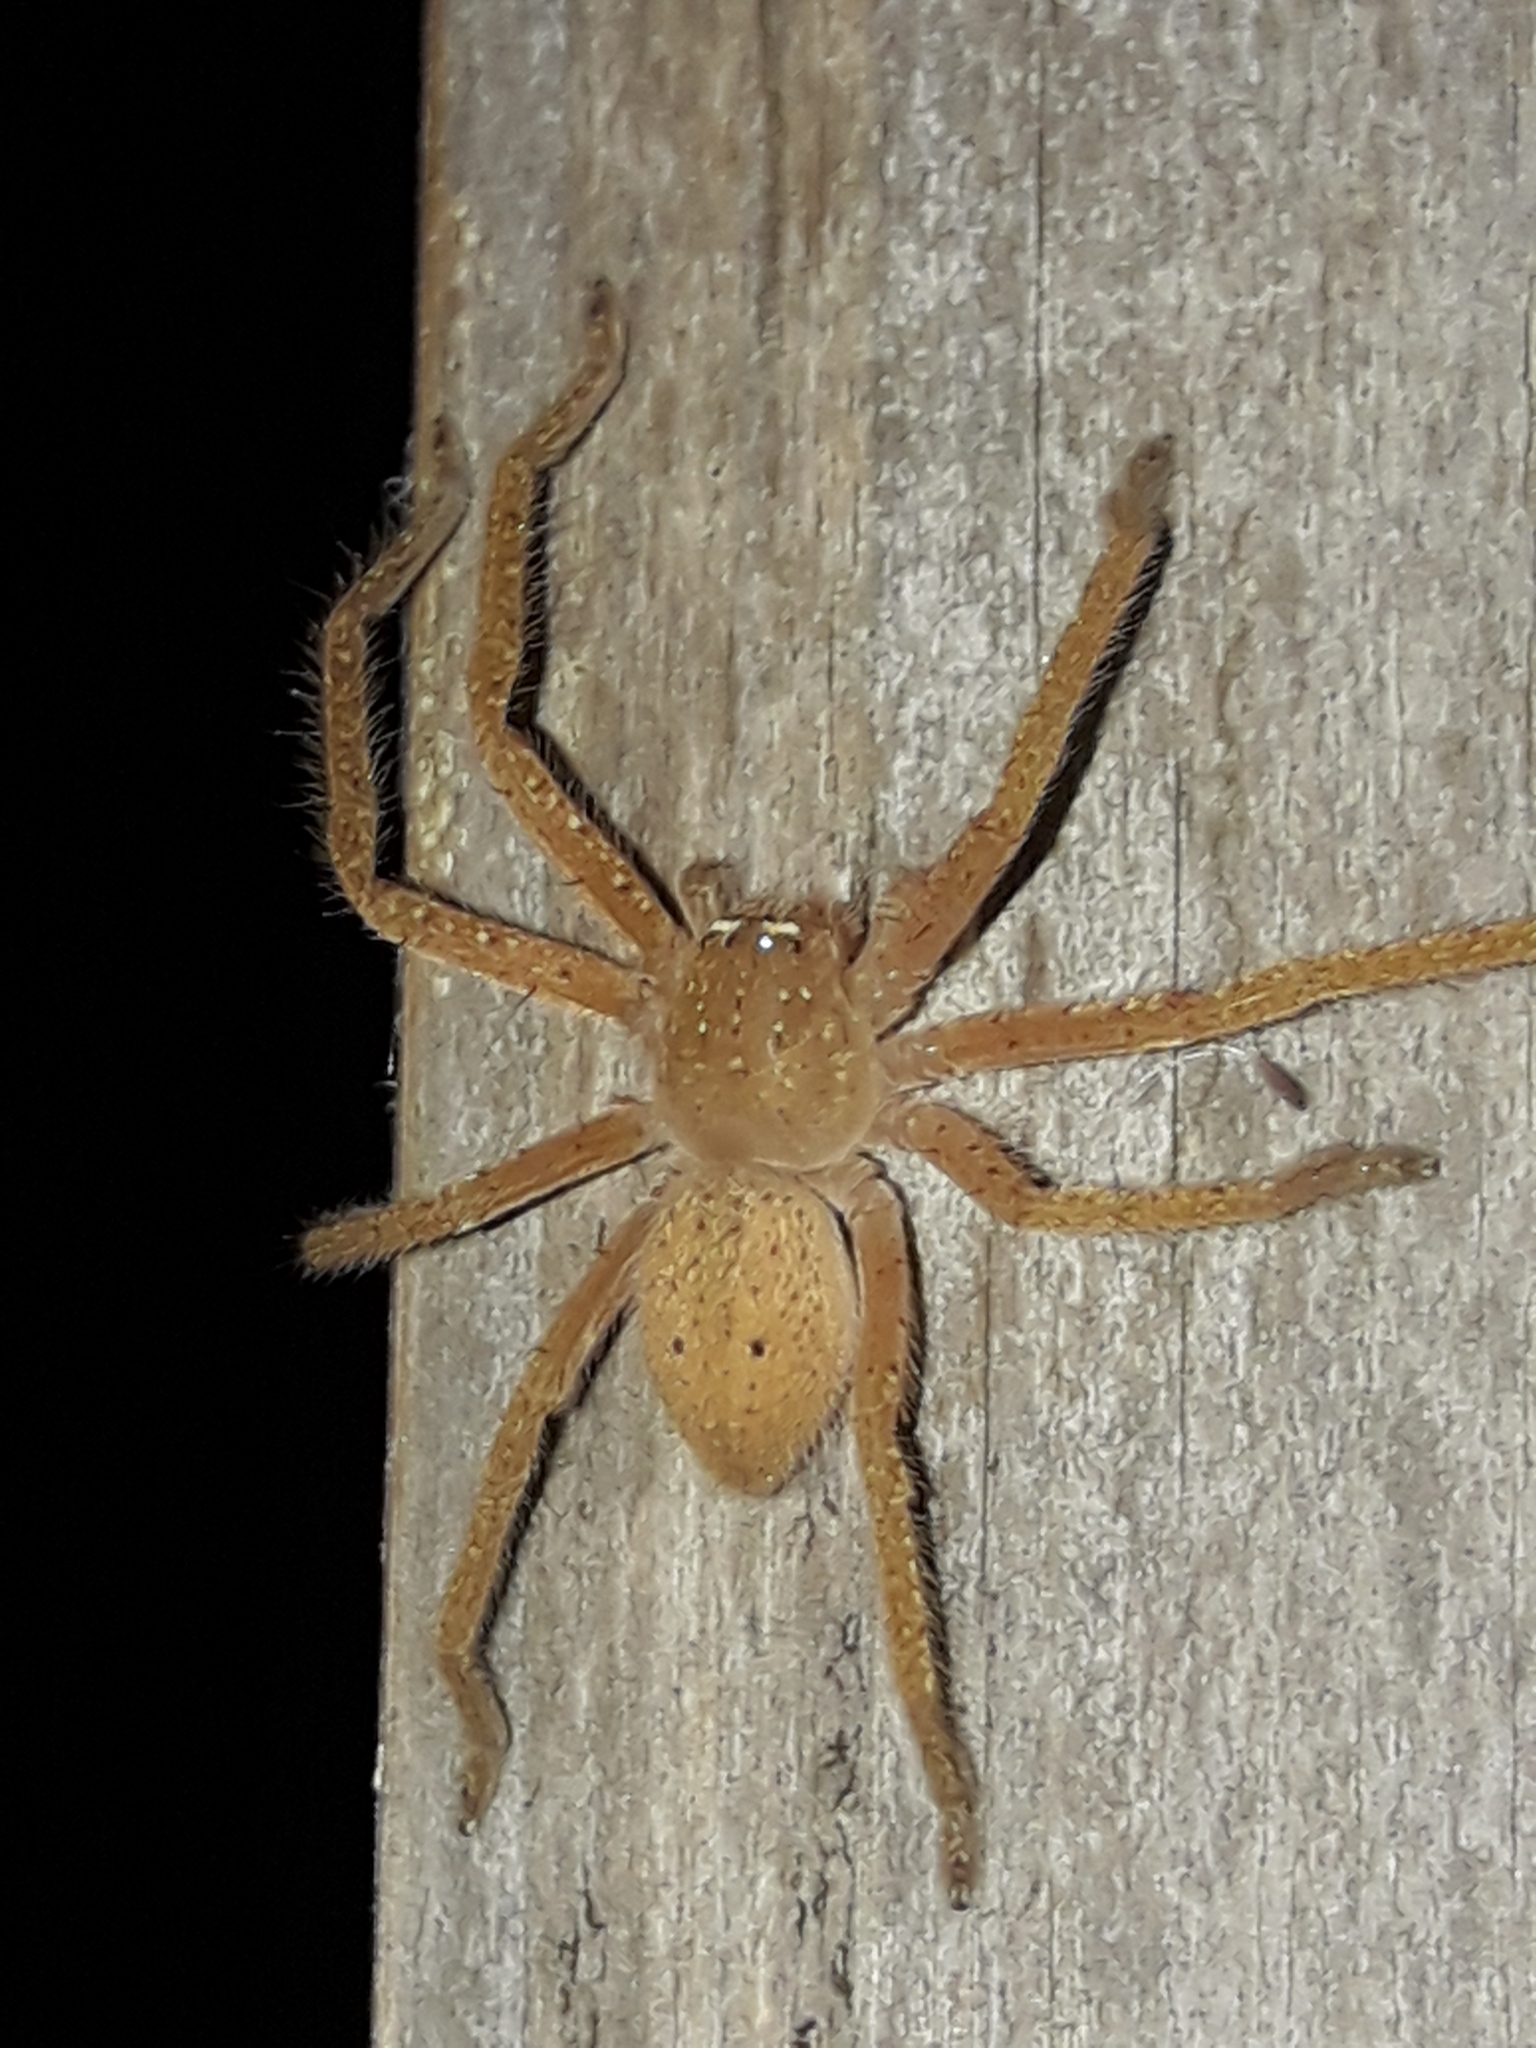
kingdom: Animalia
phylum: Arthropoda
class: Arachnida
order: Araneae
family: Sparassidae
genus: Neosparassus
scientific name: Neosparassus diana
